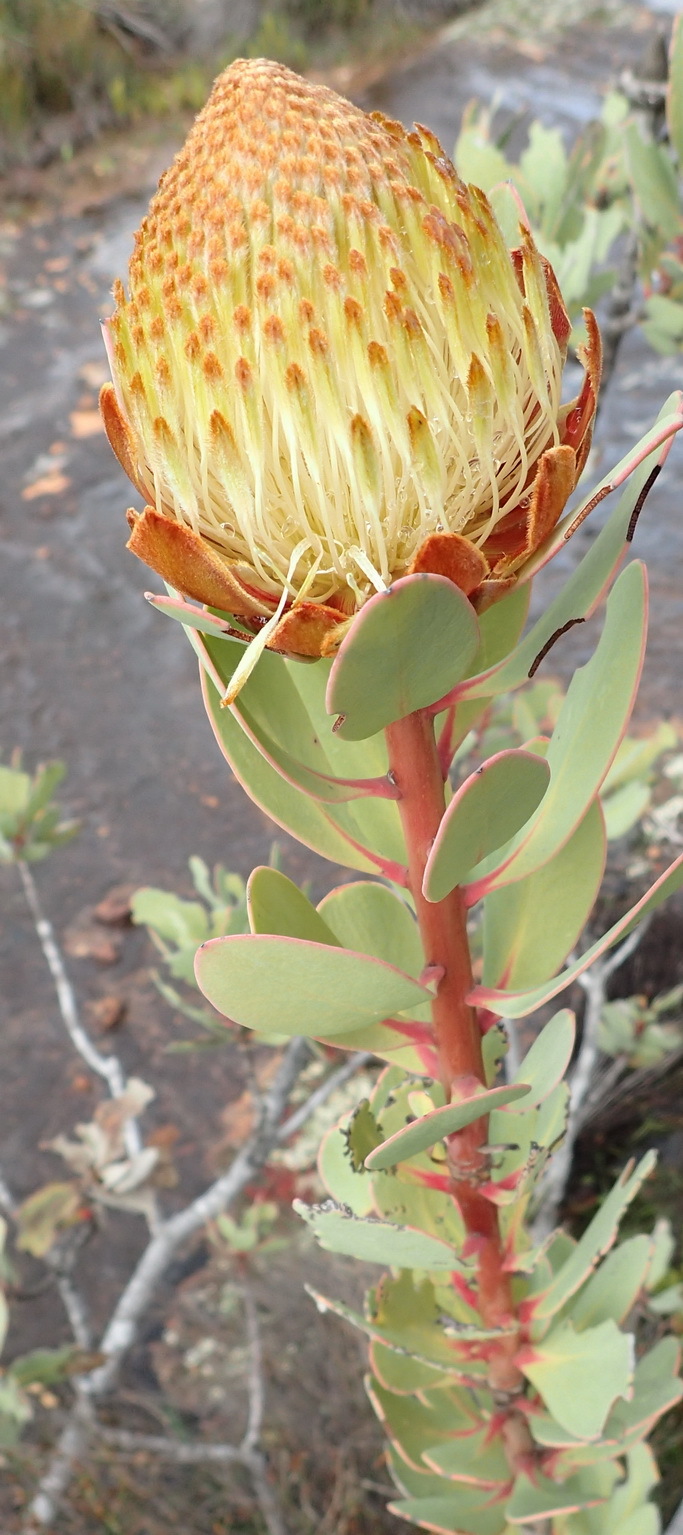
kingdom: Plantae
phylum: Tracheophyta
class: Magnoliopsida
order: Proteales
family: Proteaceae
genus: Protea
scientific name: Protea glabra
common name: Chestnut sugarbush
